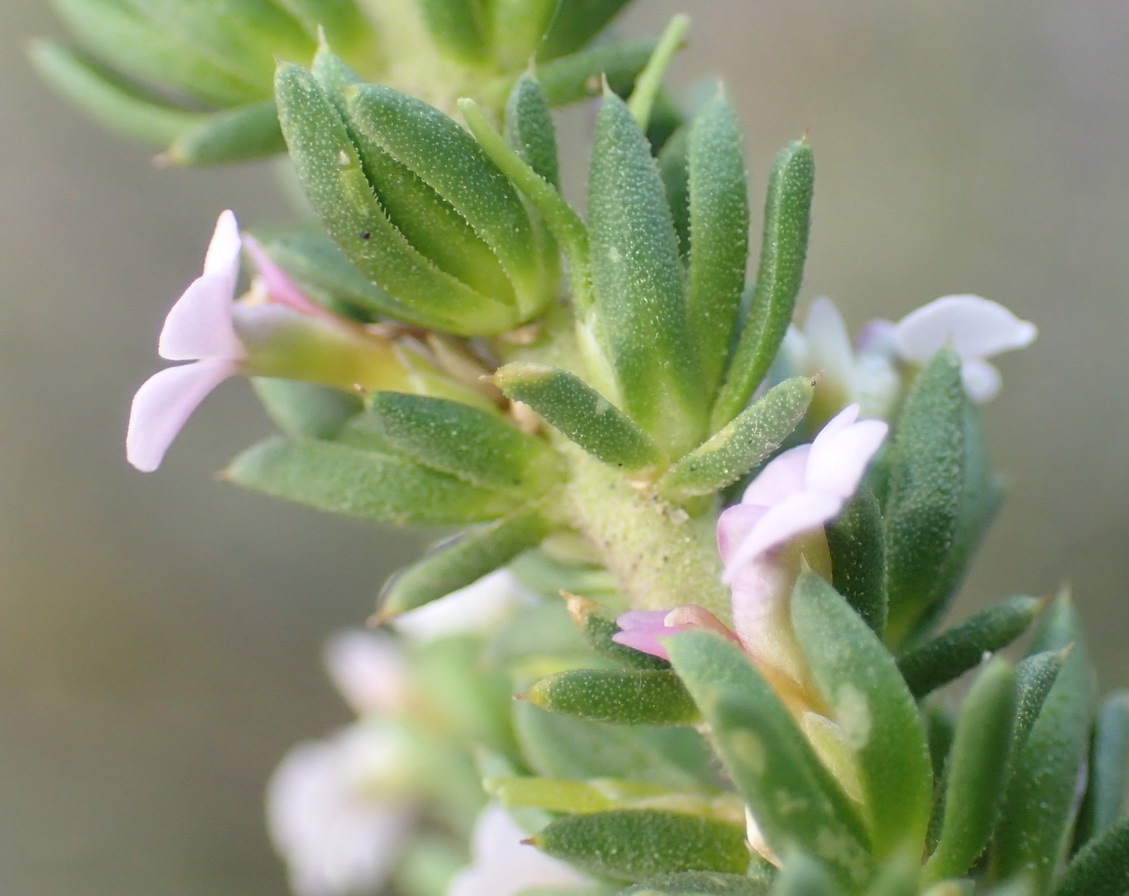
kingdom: Plantae
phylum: Tracheophyta
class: Magnoliopsida
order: Fabales
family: Polygalaceae
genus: Muraltia
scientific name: Muraltia satureioides
